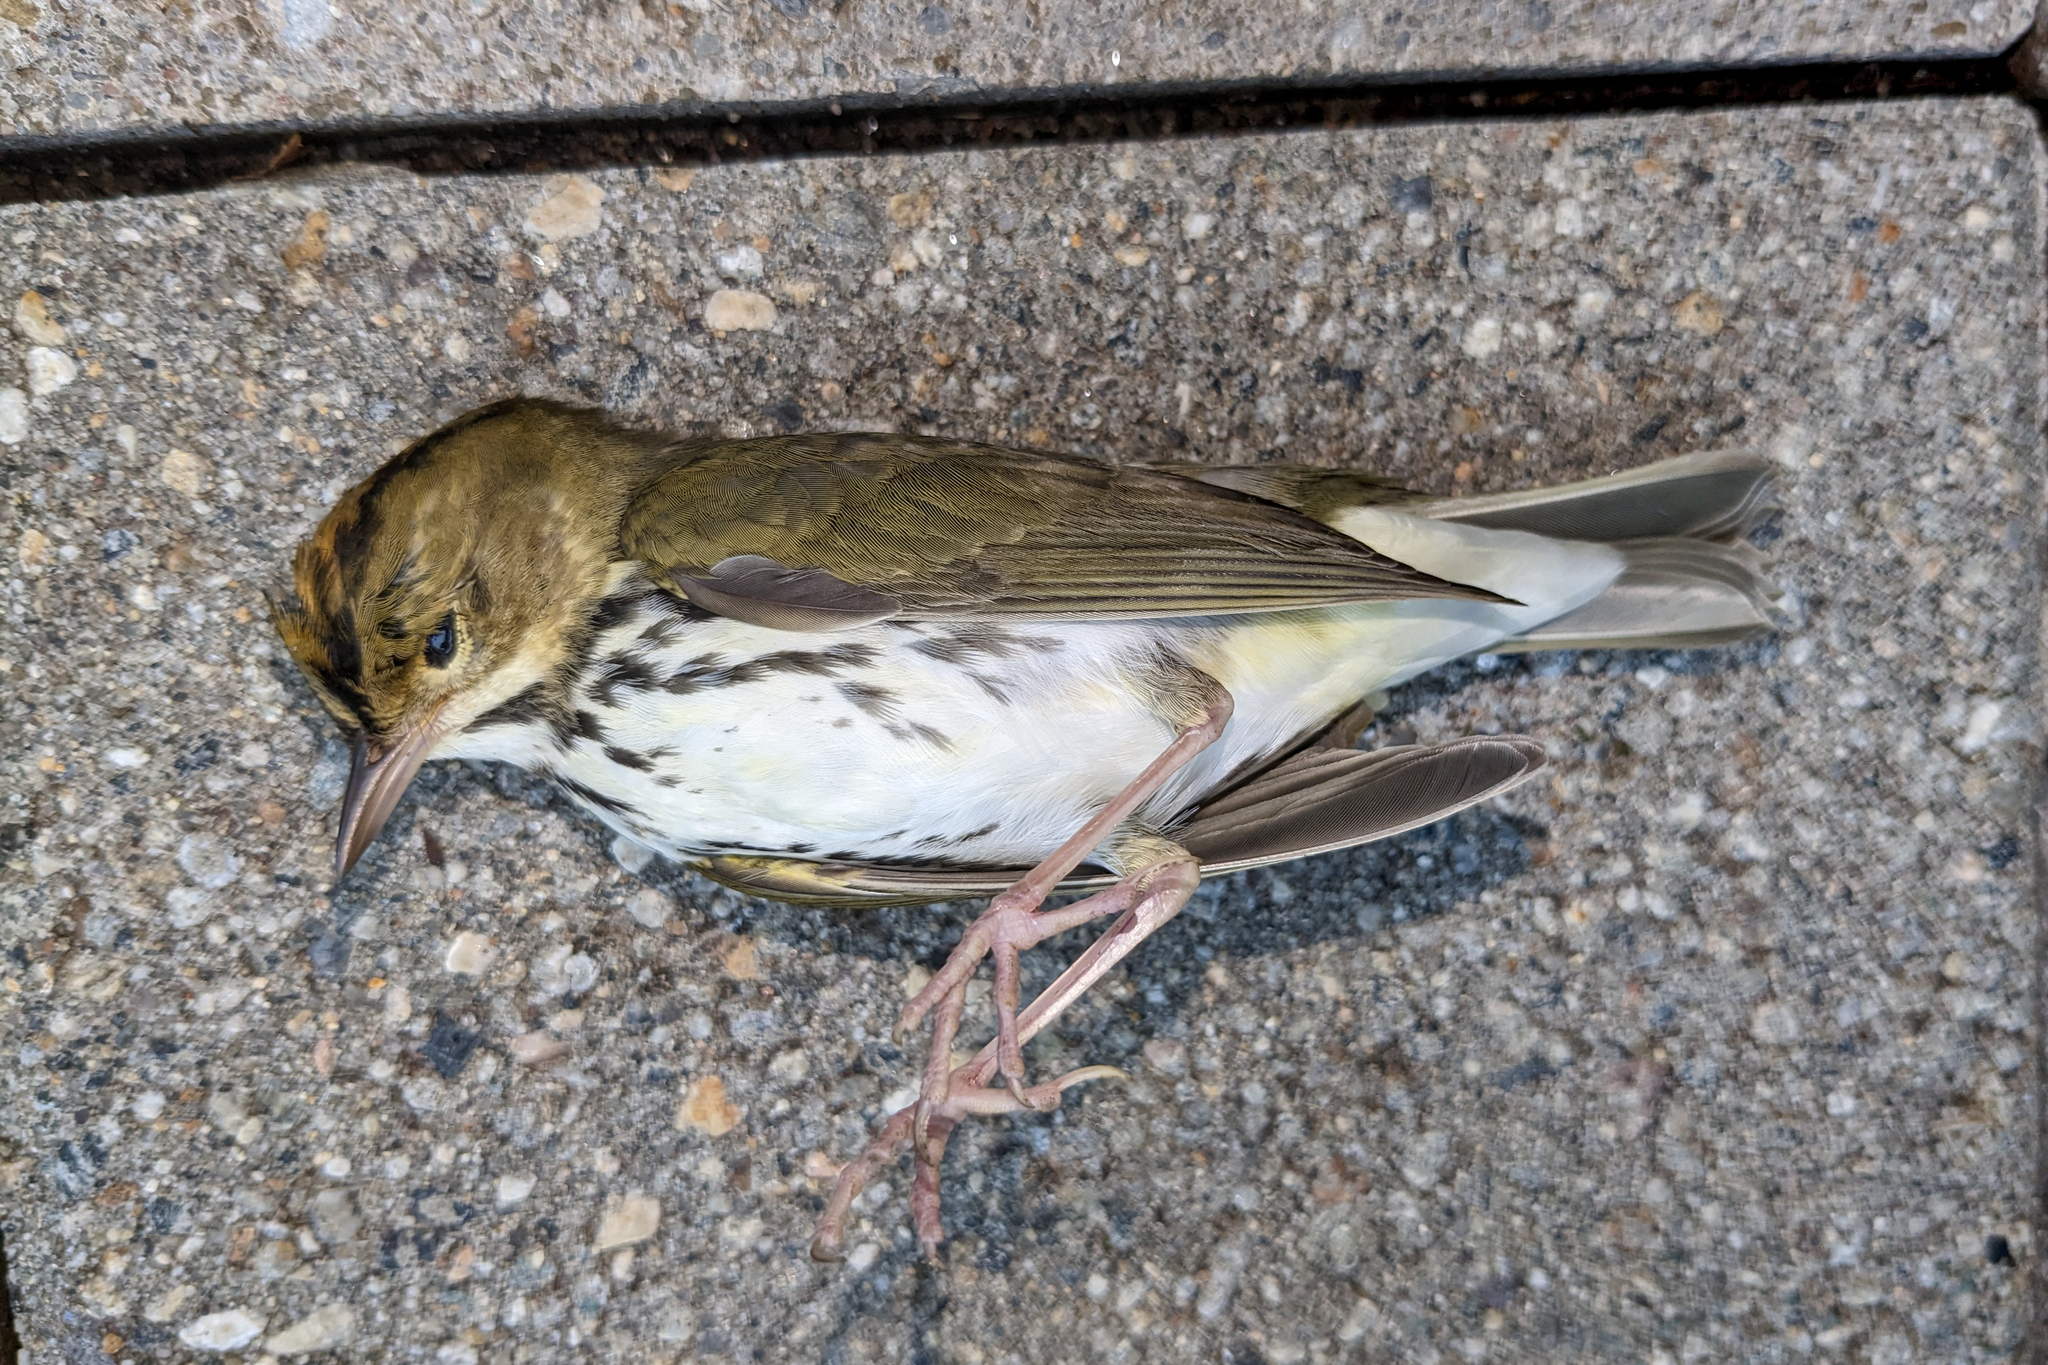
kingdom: Animalia
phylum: Chordata
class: Aves
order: Passeriformes
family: Parulidae
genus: Seiurus
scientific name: Seiurus aurocapilla
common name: Ovenbird
